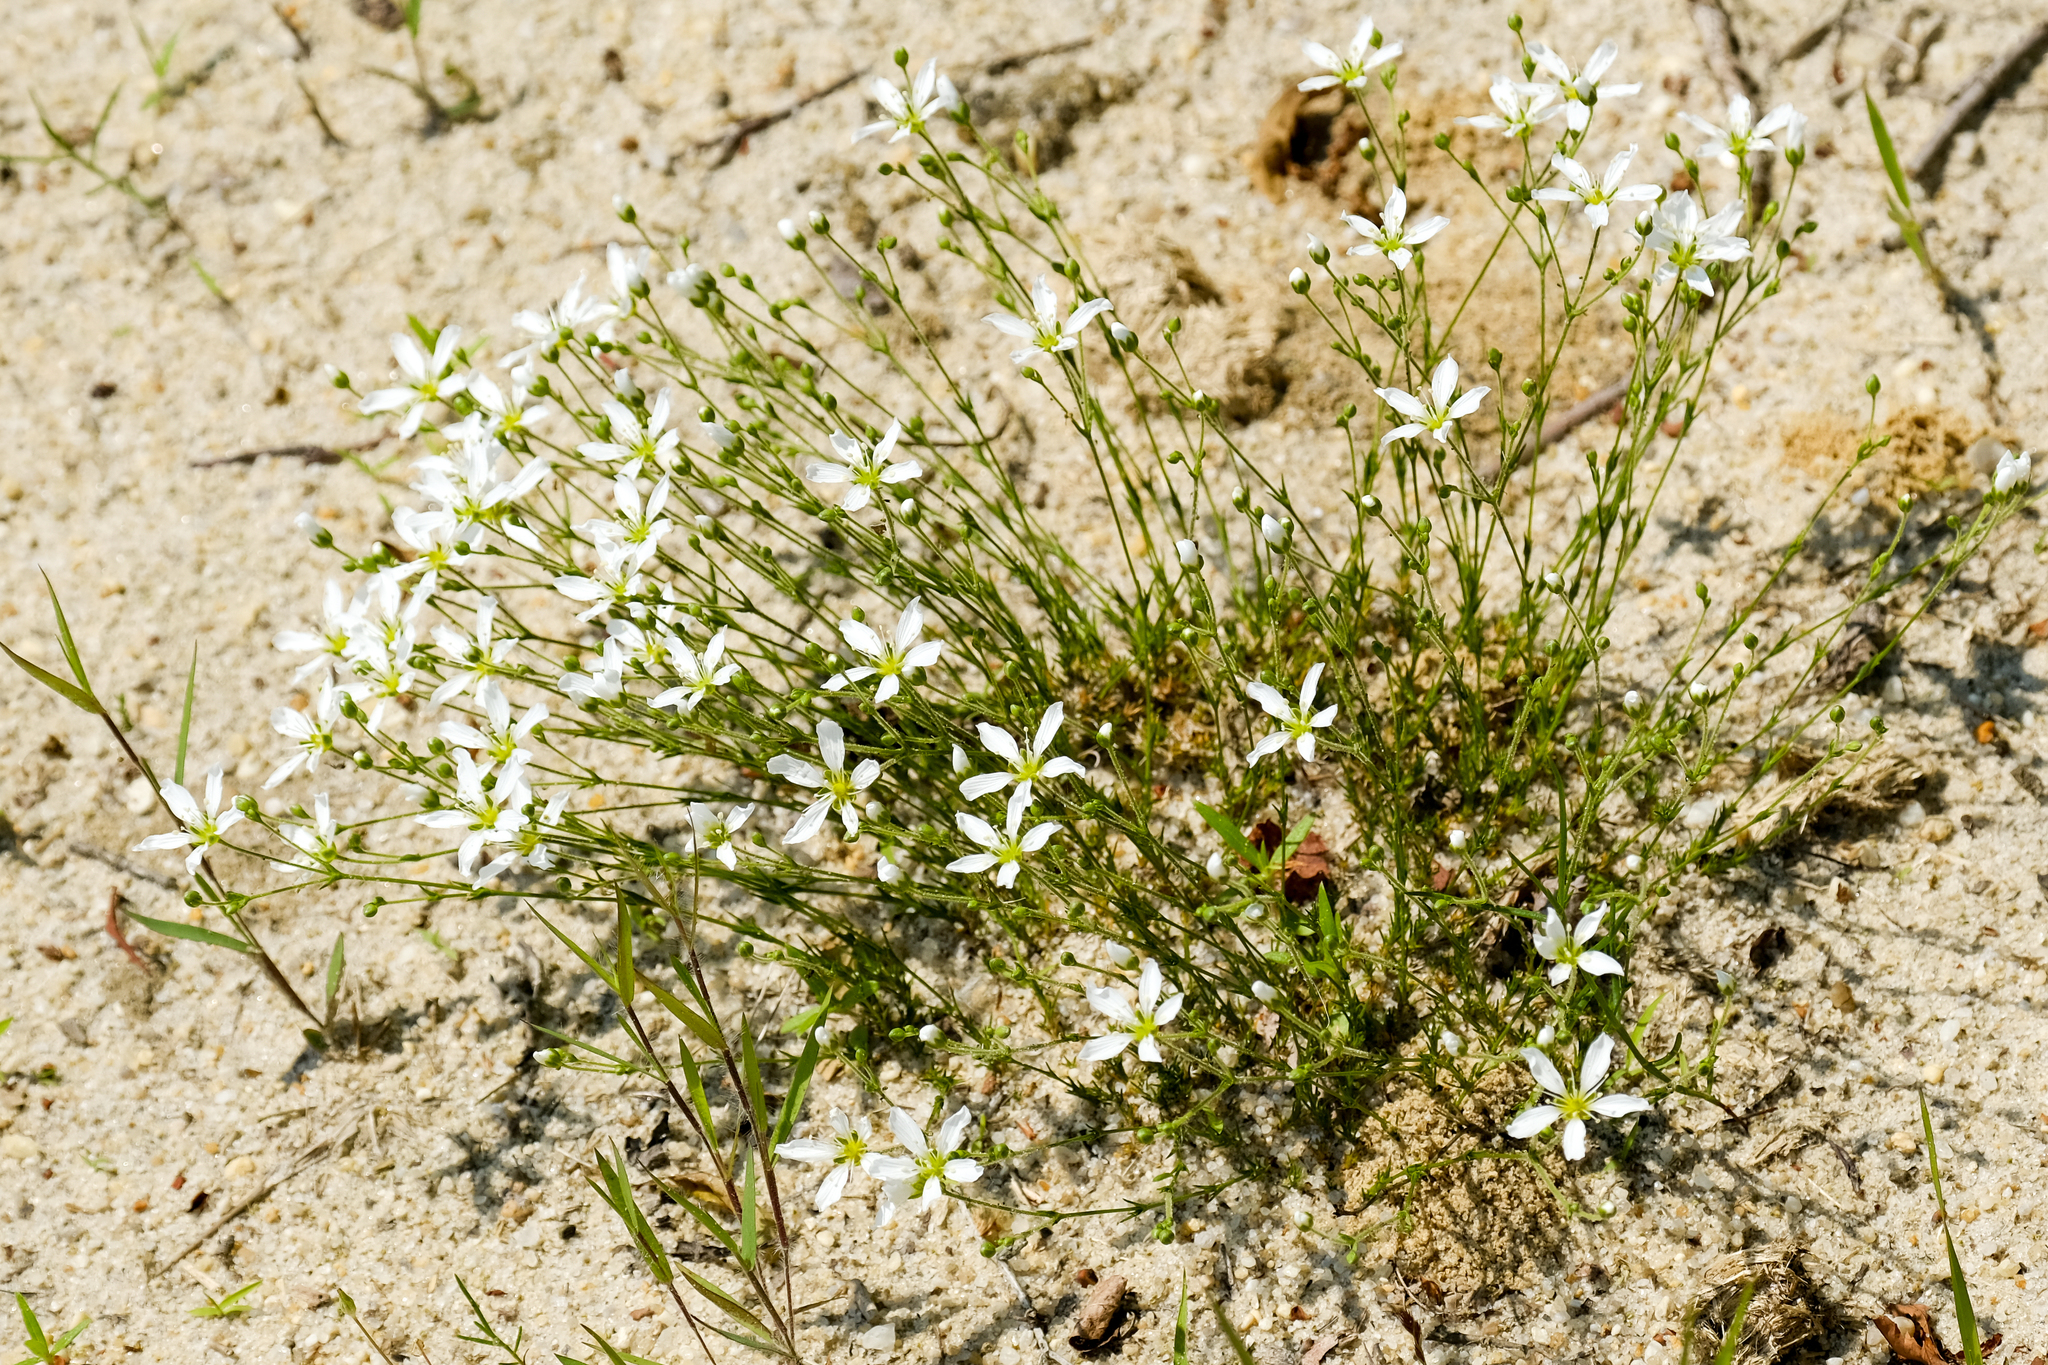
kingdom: Plantae
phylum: Tracheophyta
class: Magnoliopsida
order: Caryophyllales
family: Caryophyllaceae
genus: Geocarpon
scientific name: Geocarpon carolinianum
